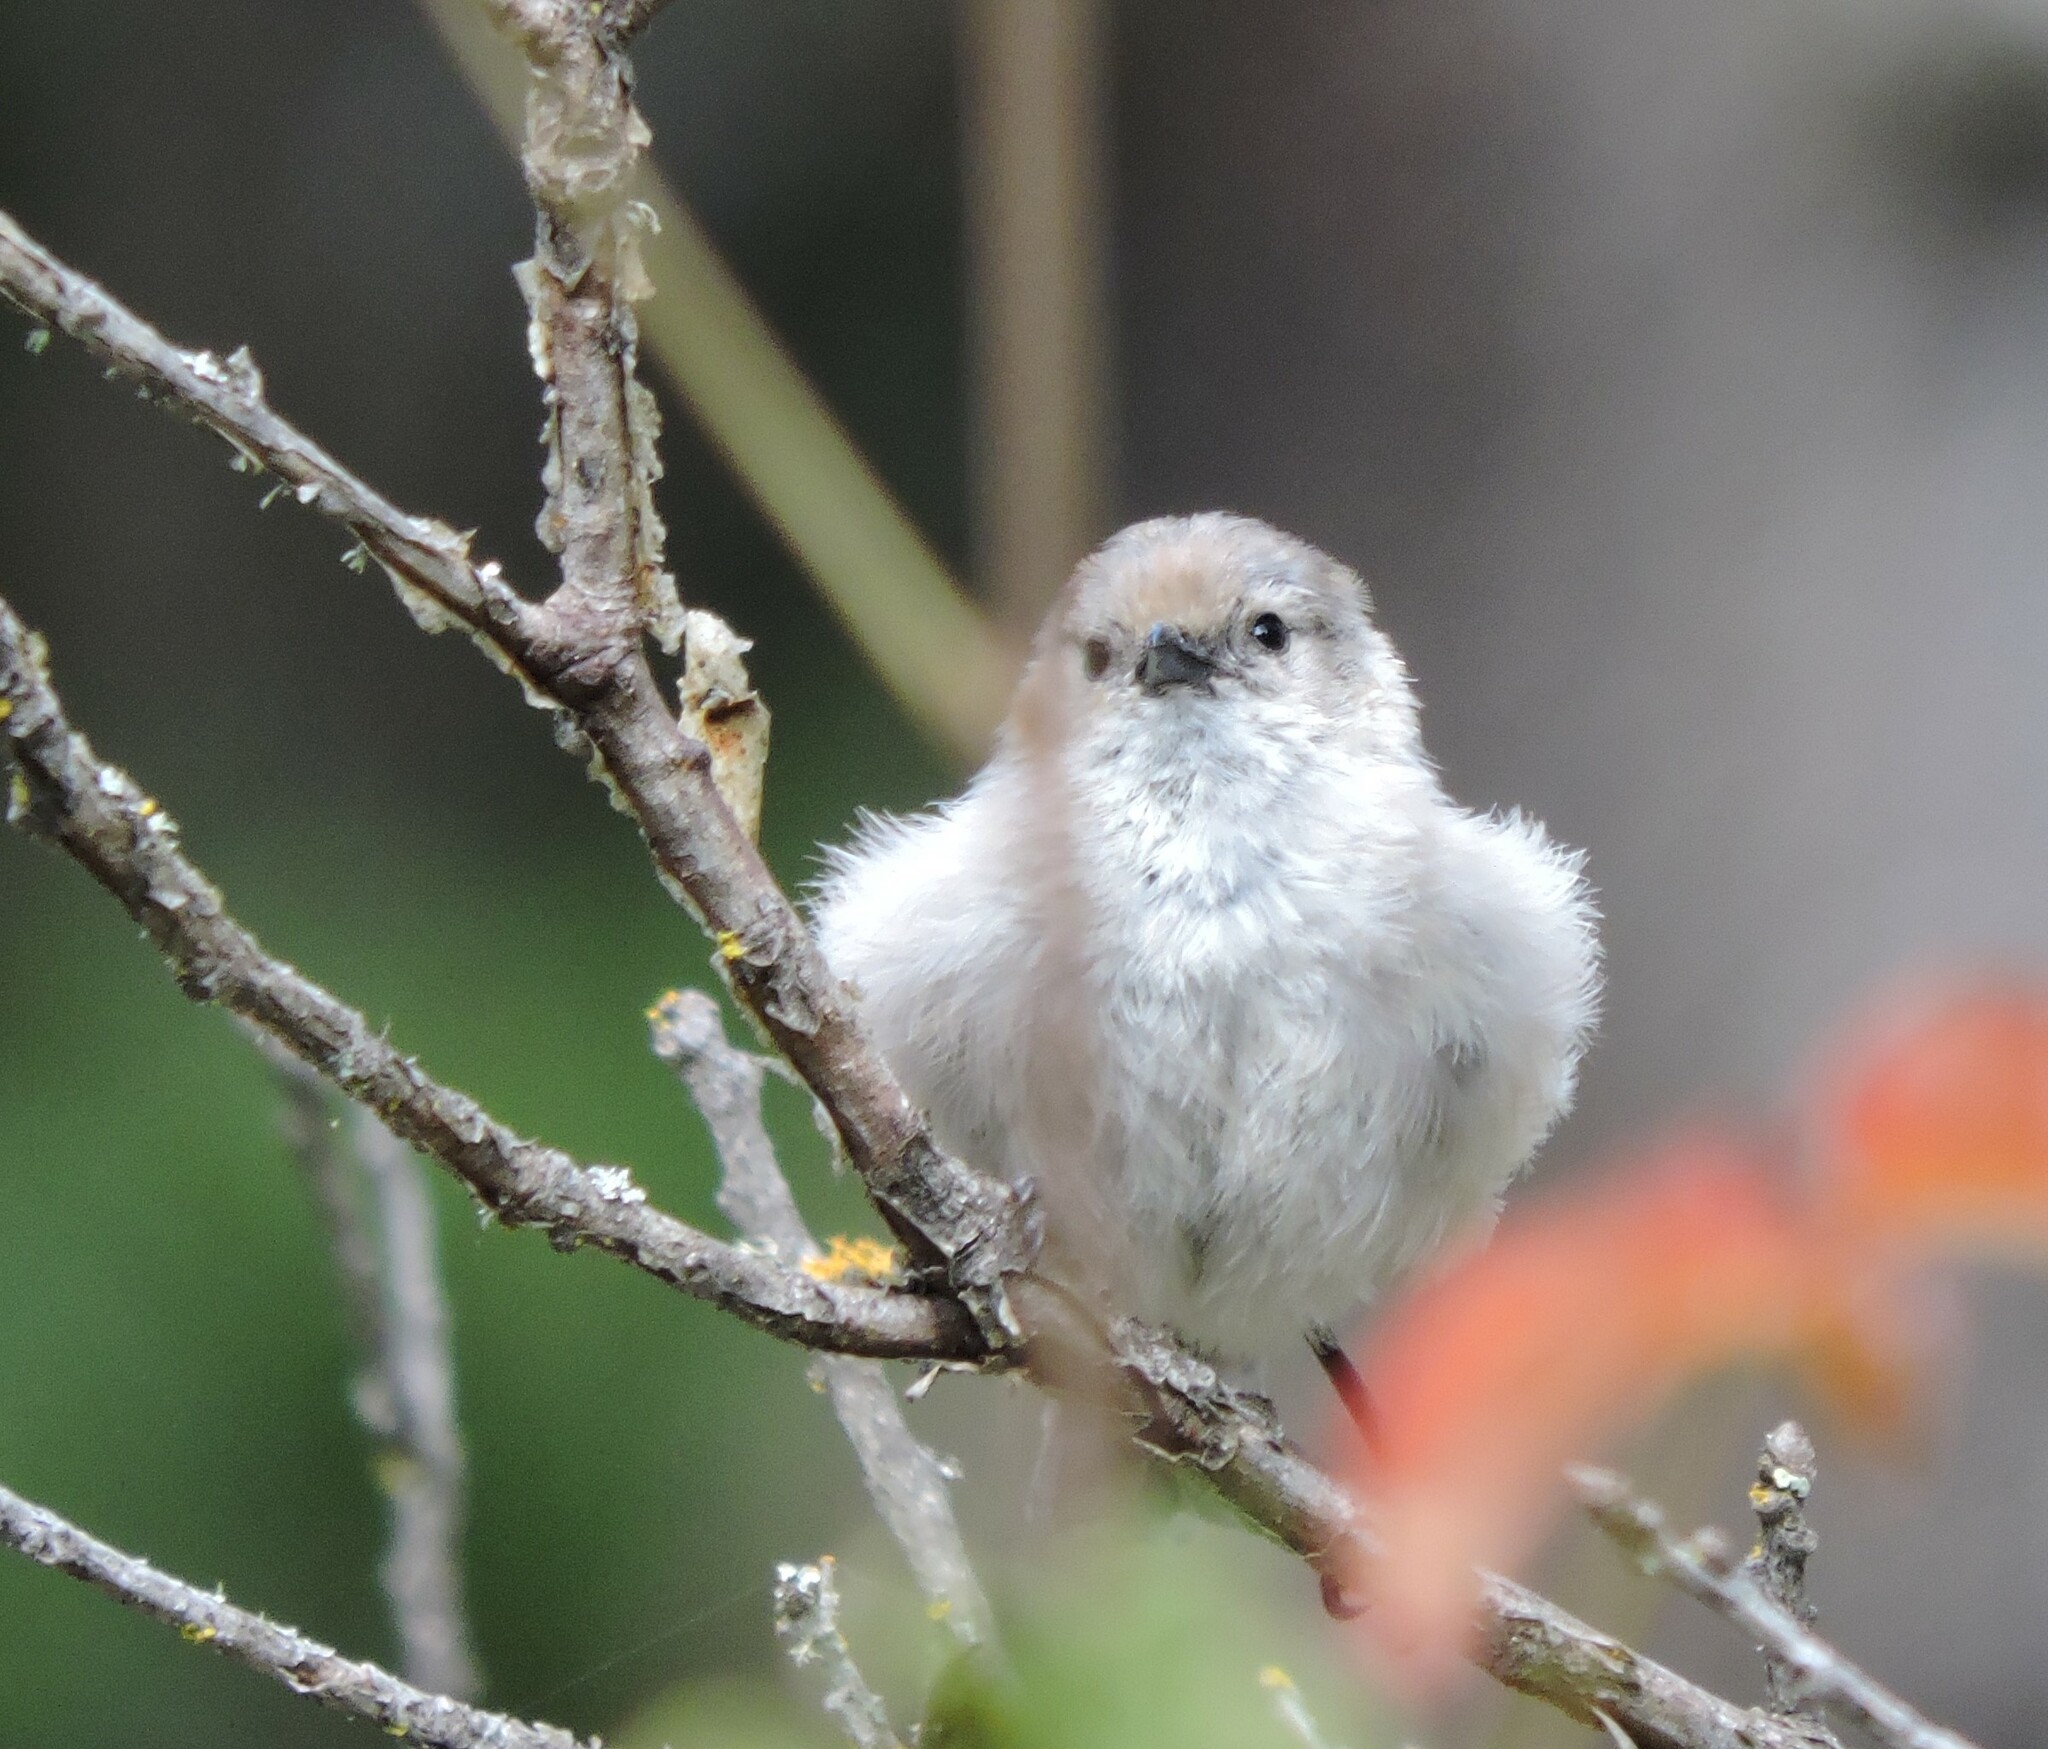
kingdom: Animalia
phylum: Chordata
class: Aves
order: Passeriformes
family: Aegithalidae
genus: Psaltriparus
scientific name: Psaltriparus minimus
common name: American bushtit
